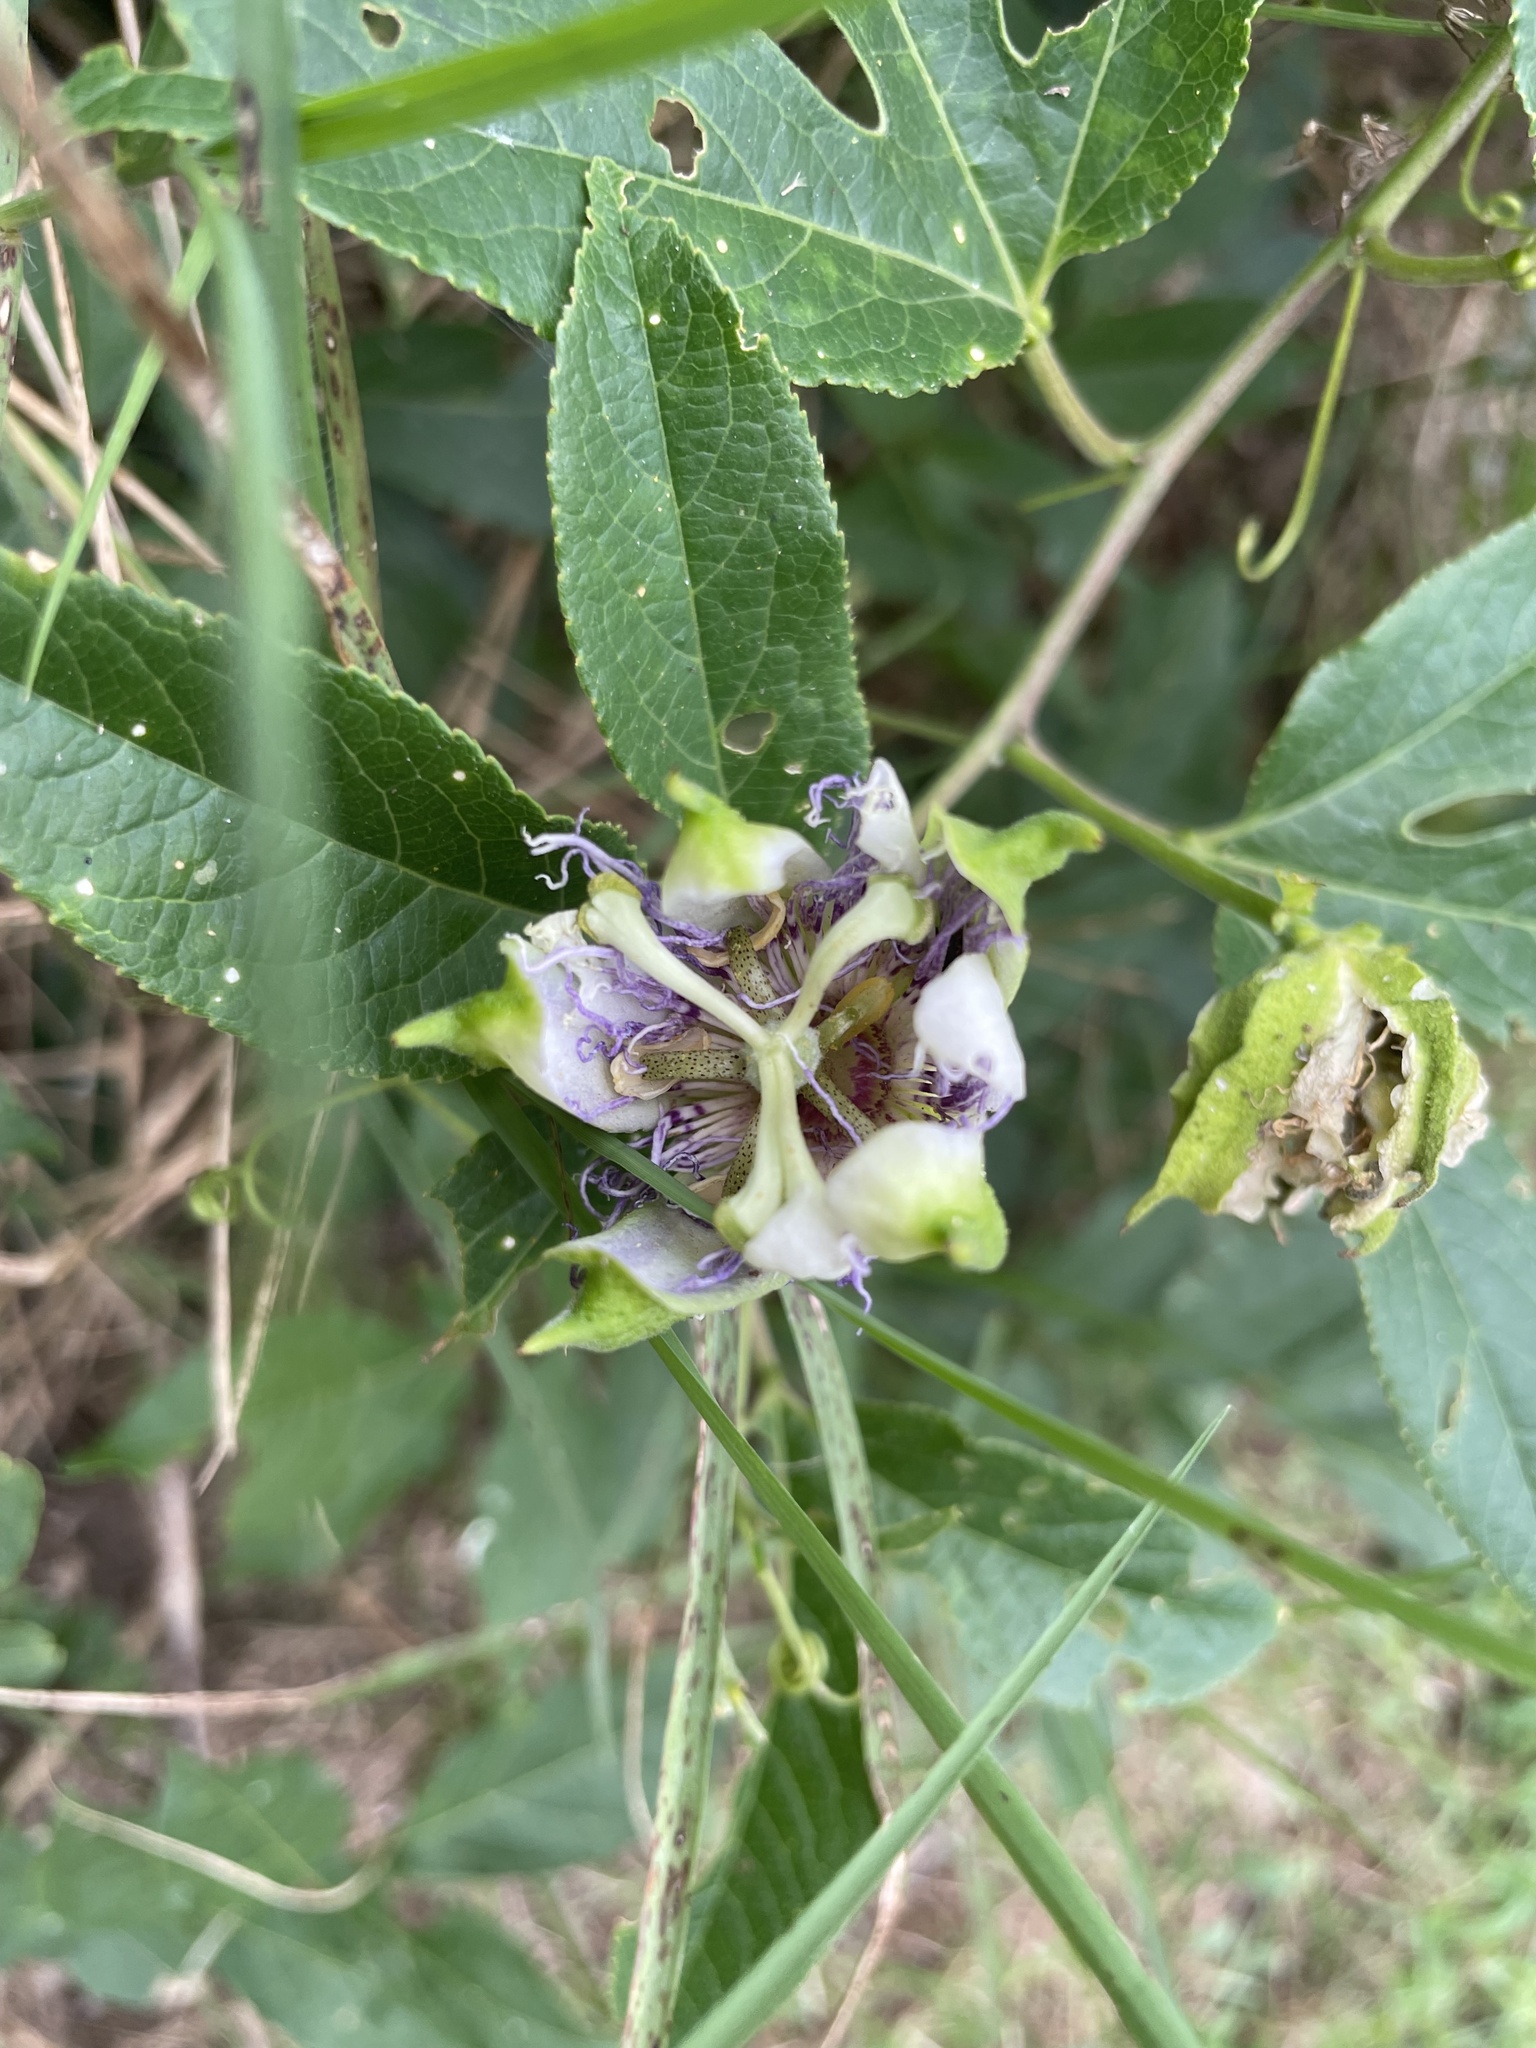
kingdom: Plantae
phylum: Tracheophyta
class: Magnoliopsida
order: Malpighiales
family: Passifloraceae
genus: Passiflora
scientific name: Passiflora incarnata
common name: Apricot-vine
